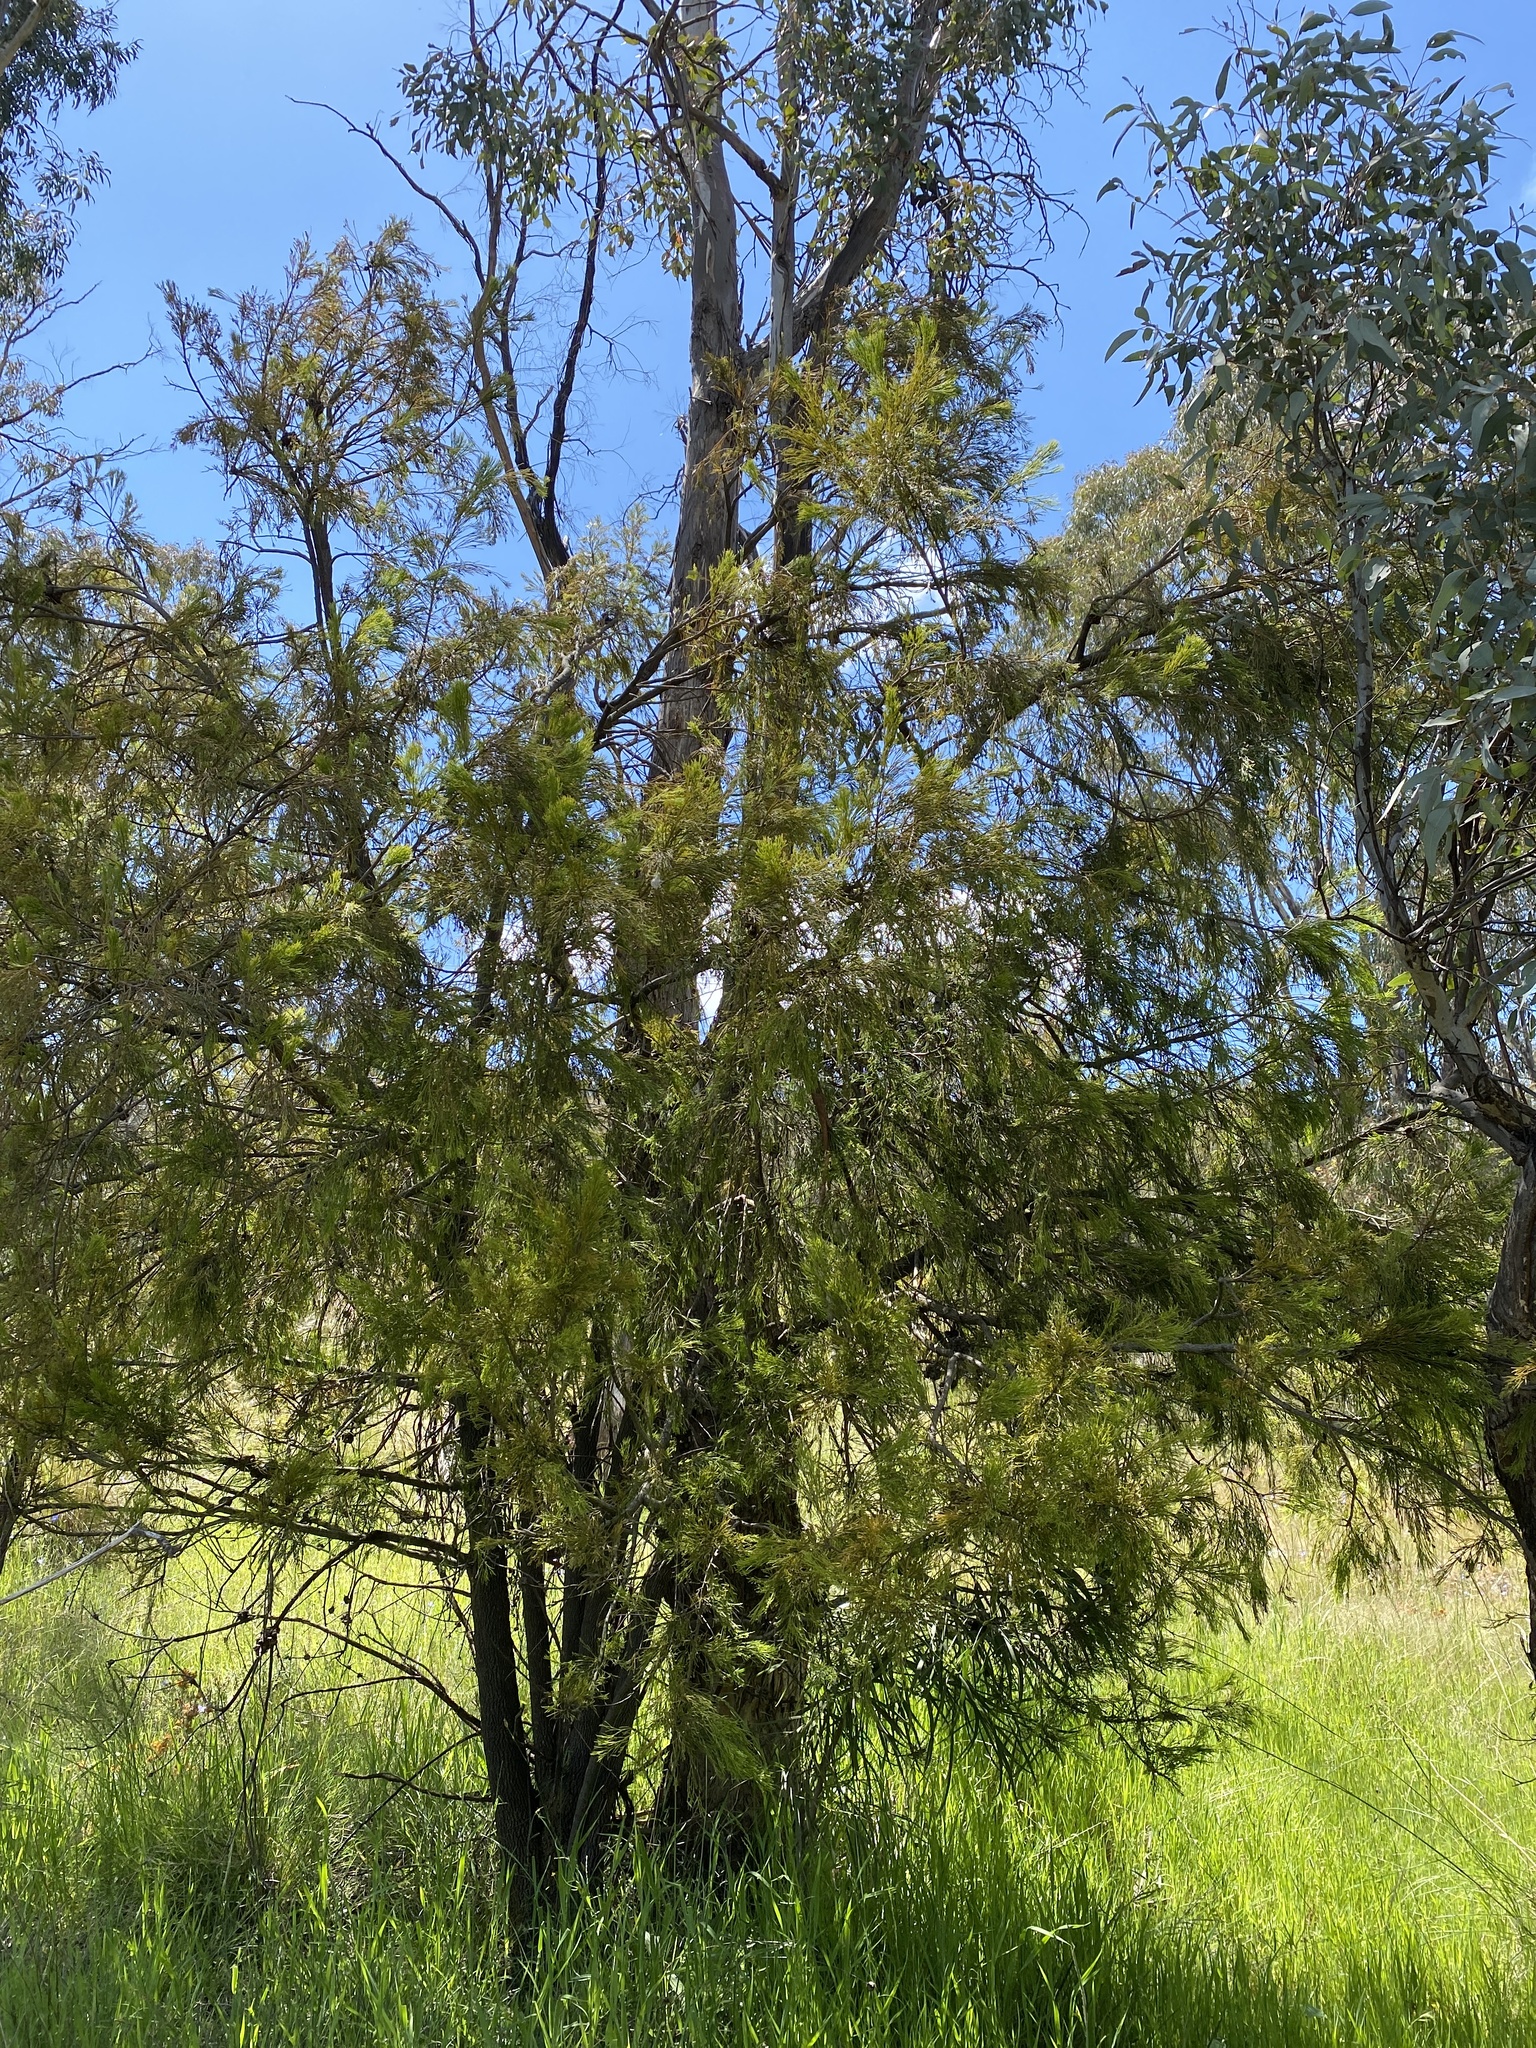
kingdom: Plantae
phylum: Tracheophyta
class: Magnoliopsida
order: Santalales
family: Santalaceae
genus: Exocarpos
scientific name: Exocarpos cupressiformis
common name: Cherry ballart
